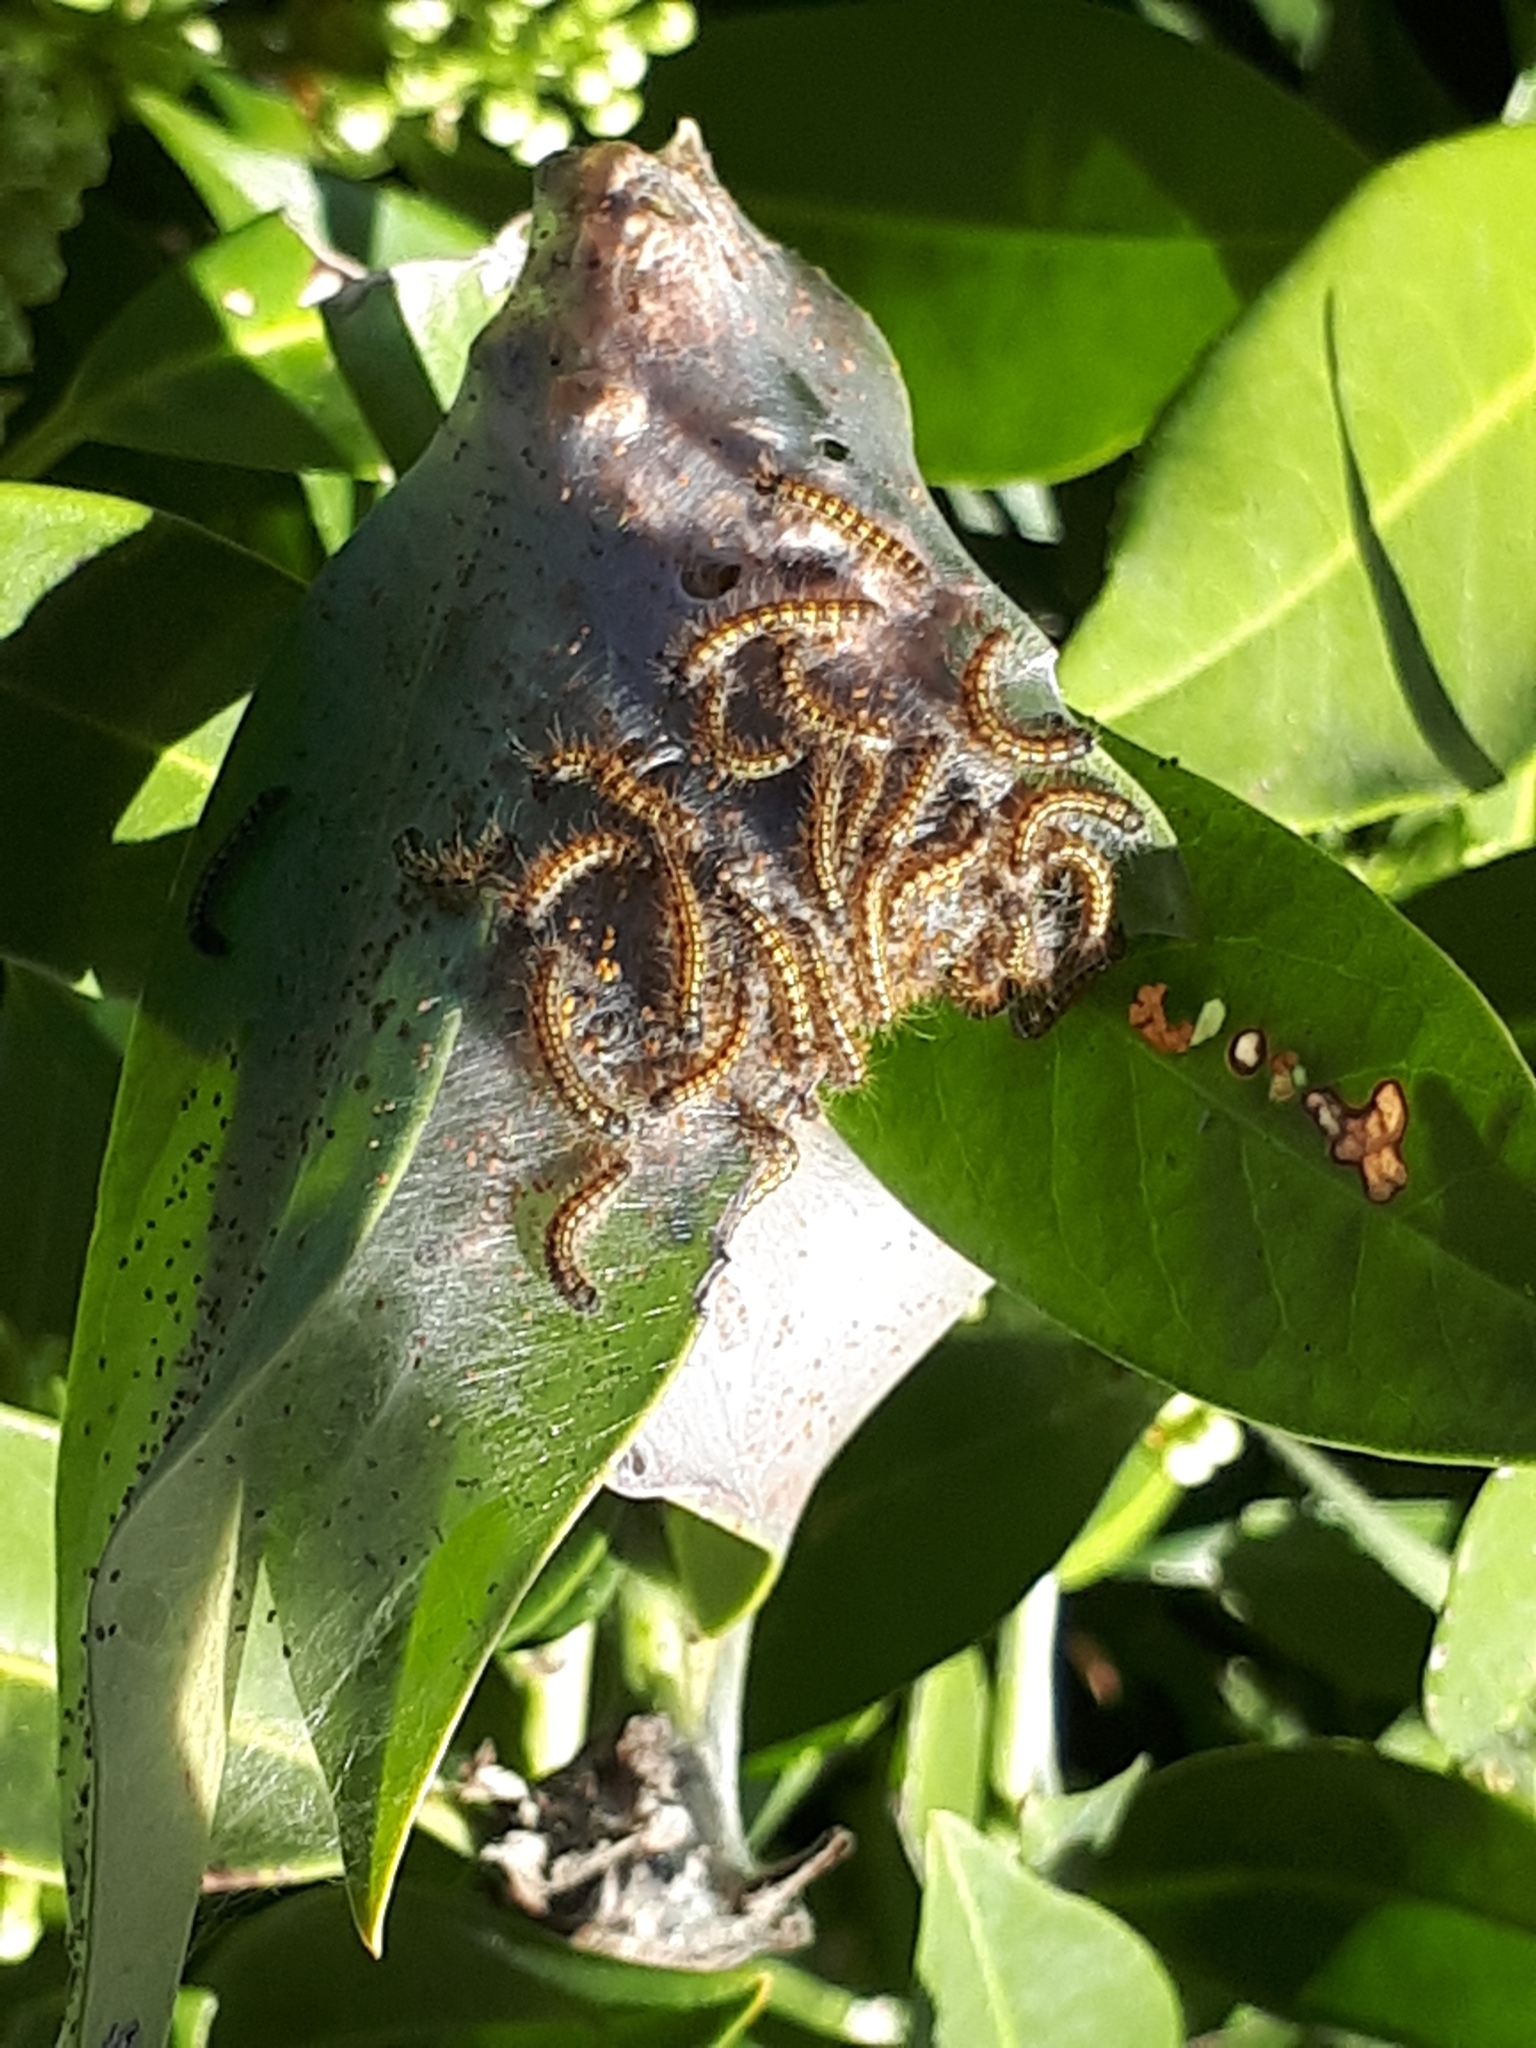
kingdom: Animalia
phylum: Arthropoda
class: Insecta
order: Lepidoptera
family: Lasiocampidae
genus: Malacosoma
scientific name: Malacosoma californica
